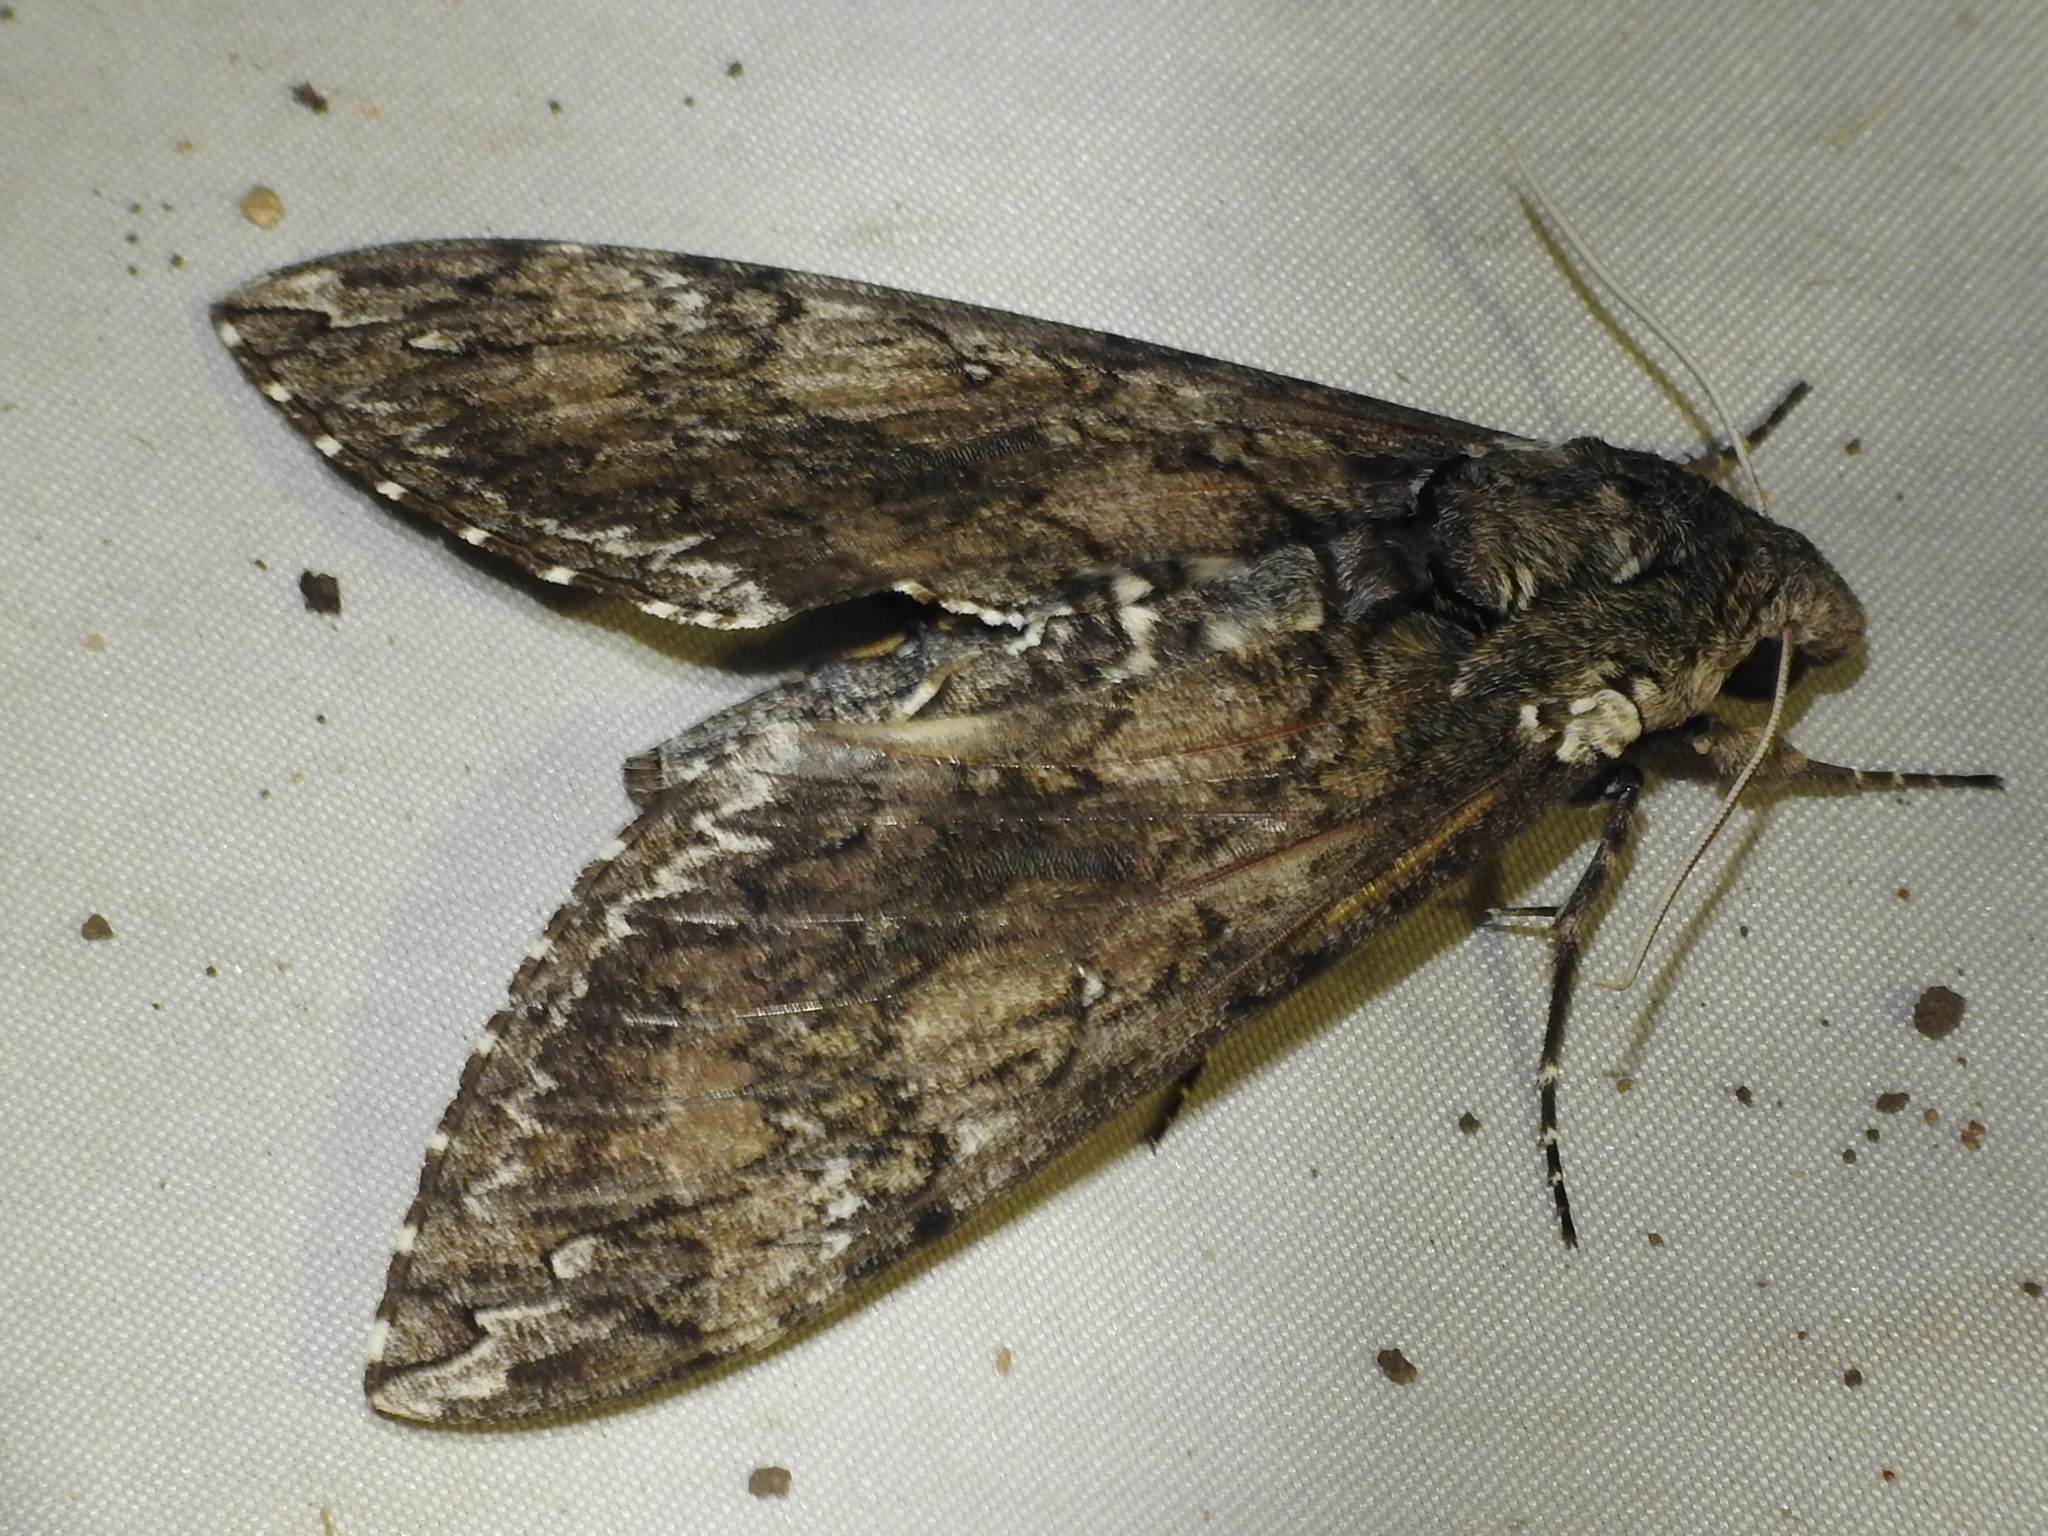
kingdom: Animalia
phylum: Arthropoda
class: Insecta
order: Lepidoptera
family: Sphingidae
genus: Manduca
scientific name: Manduca sexta
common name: Carolina sphinx
